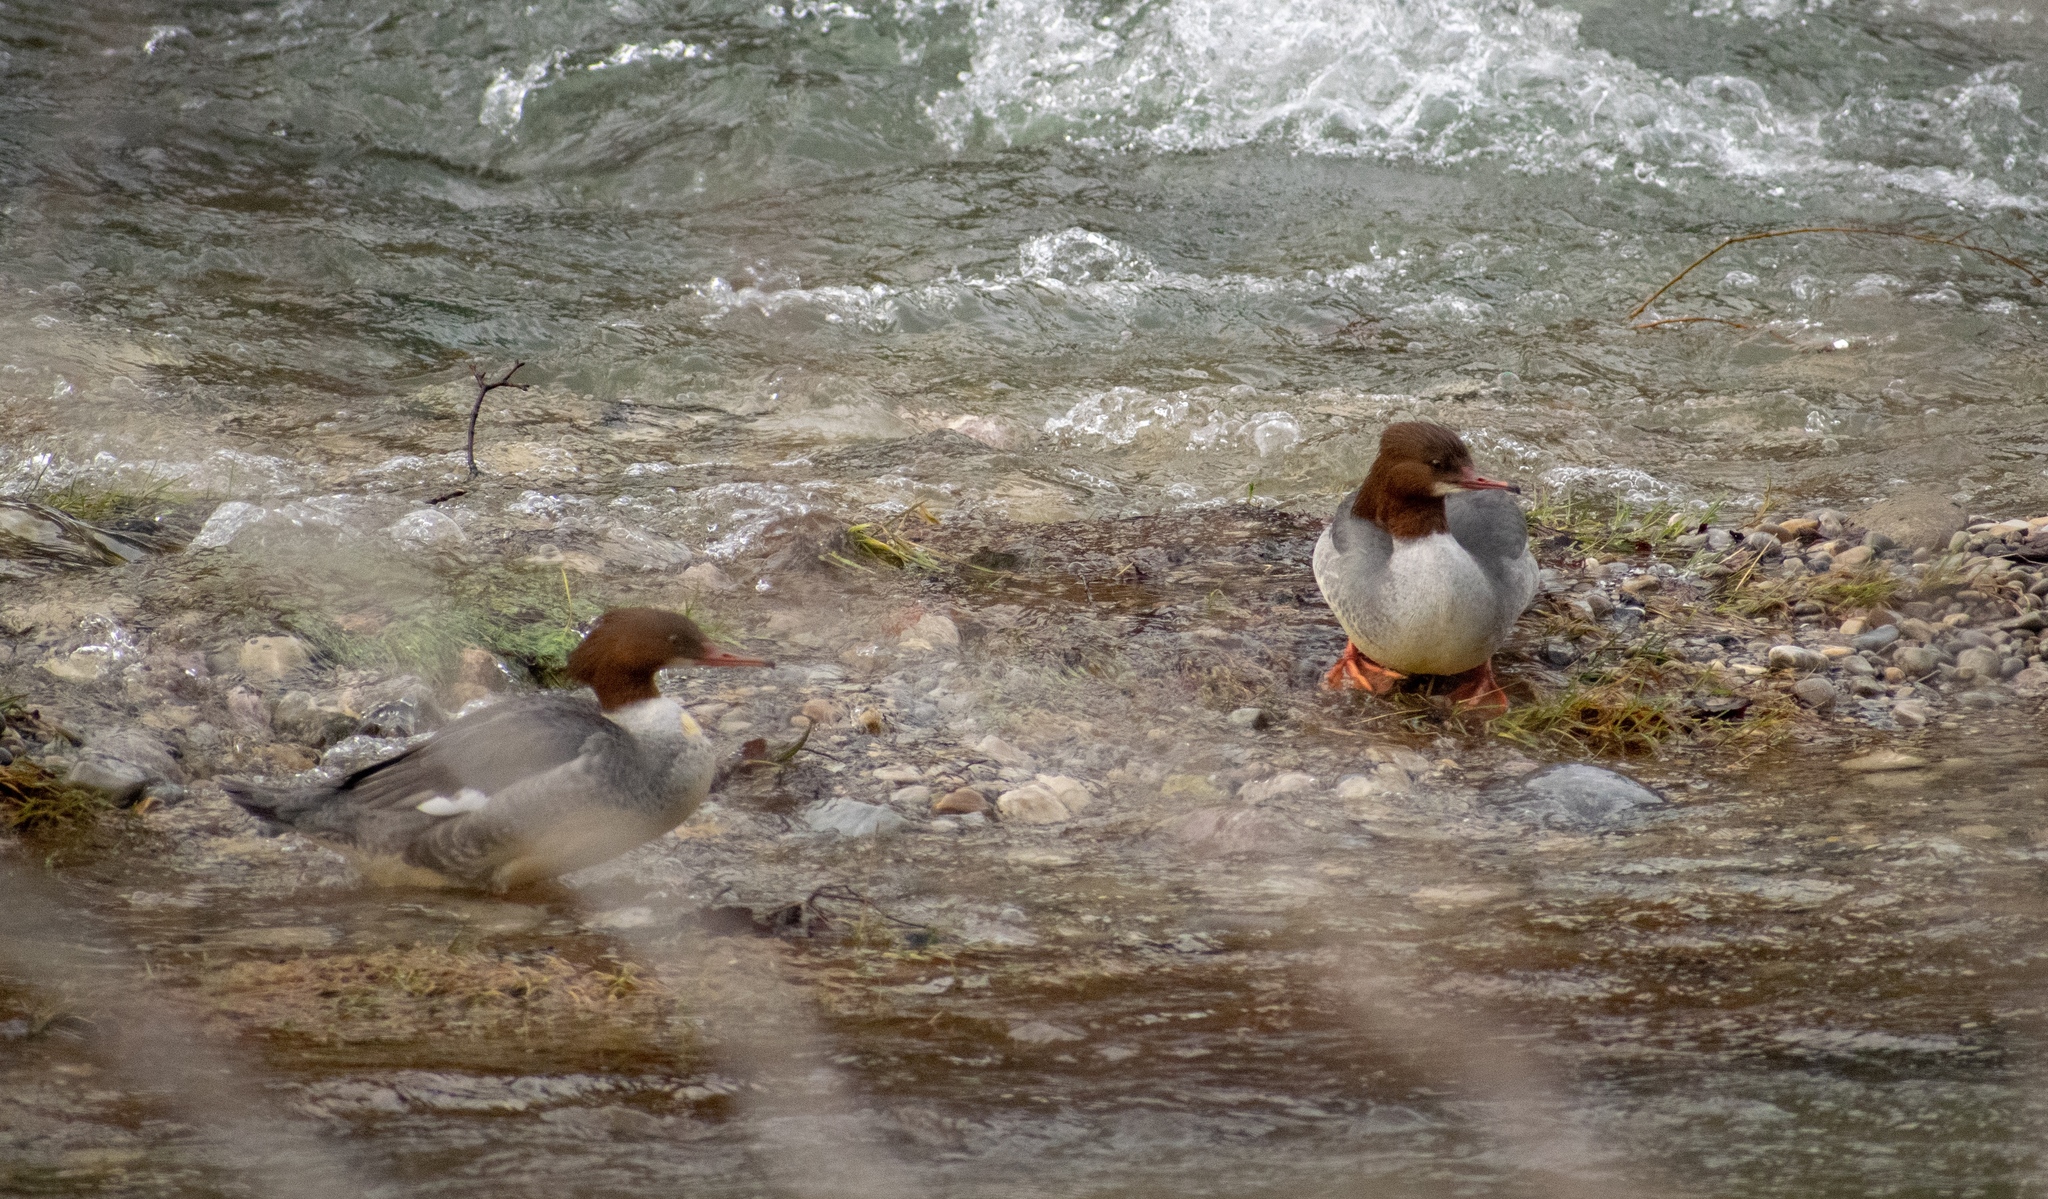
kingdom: Animalia
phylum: Chordata
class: Aves
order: Anseriformes
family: Anatidae
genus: Mergus
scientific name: Mergus merganser
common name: Common merganser
